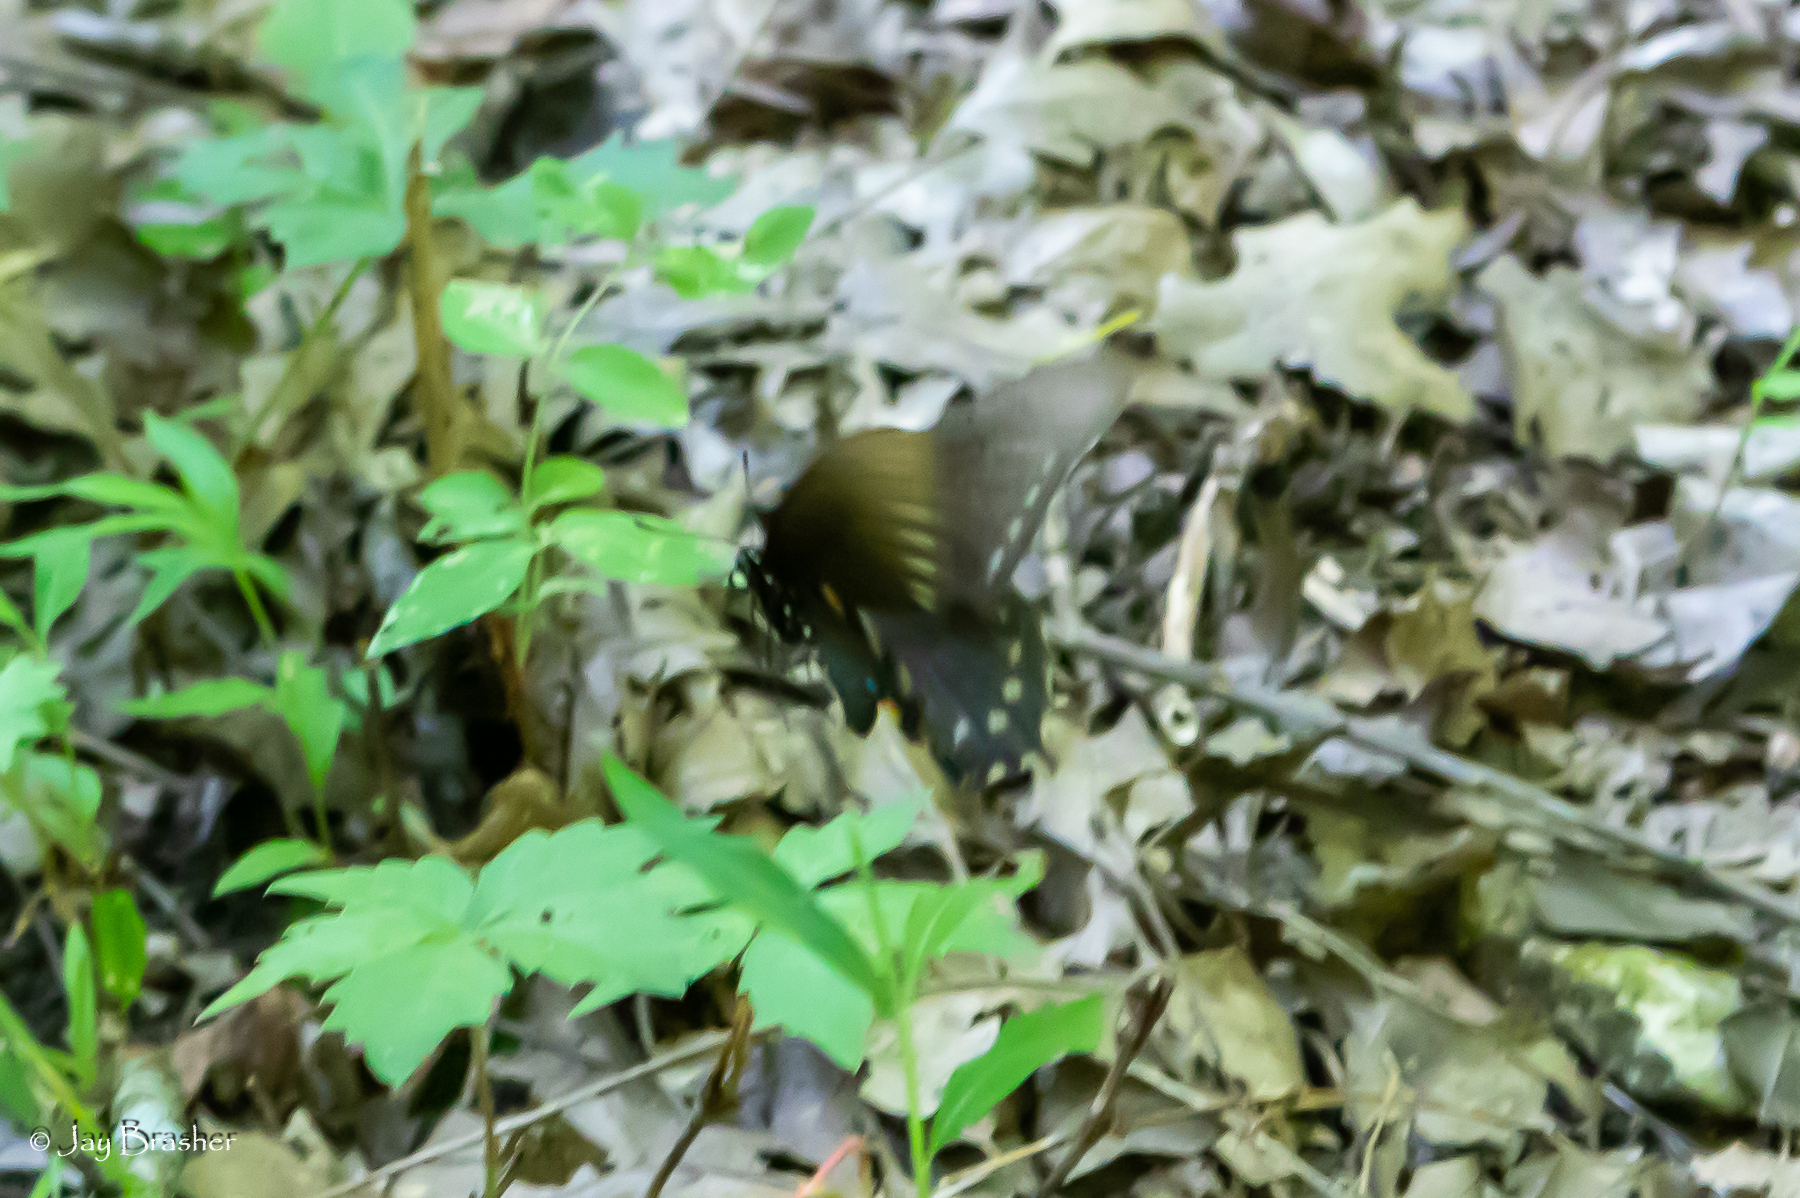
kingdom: Animalia
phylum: Arthropoda
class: Insecta
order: Lepidoptera
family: Papilionidae
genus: Battus
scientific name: Battus philenor
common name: Pipevine swallowtail
